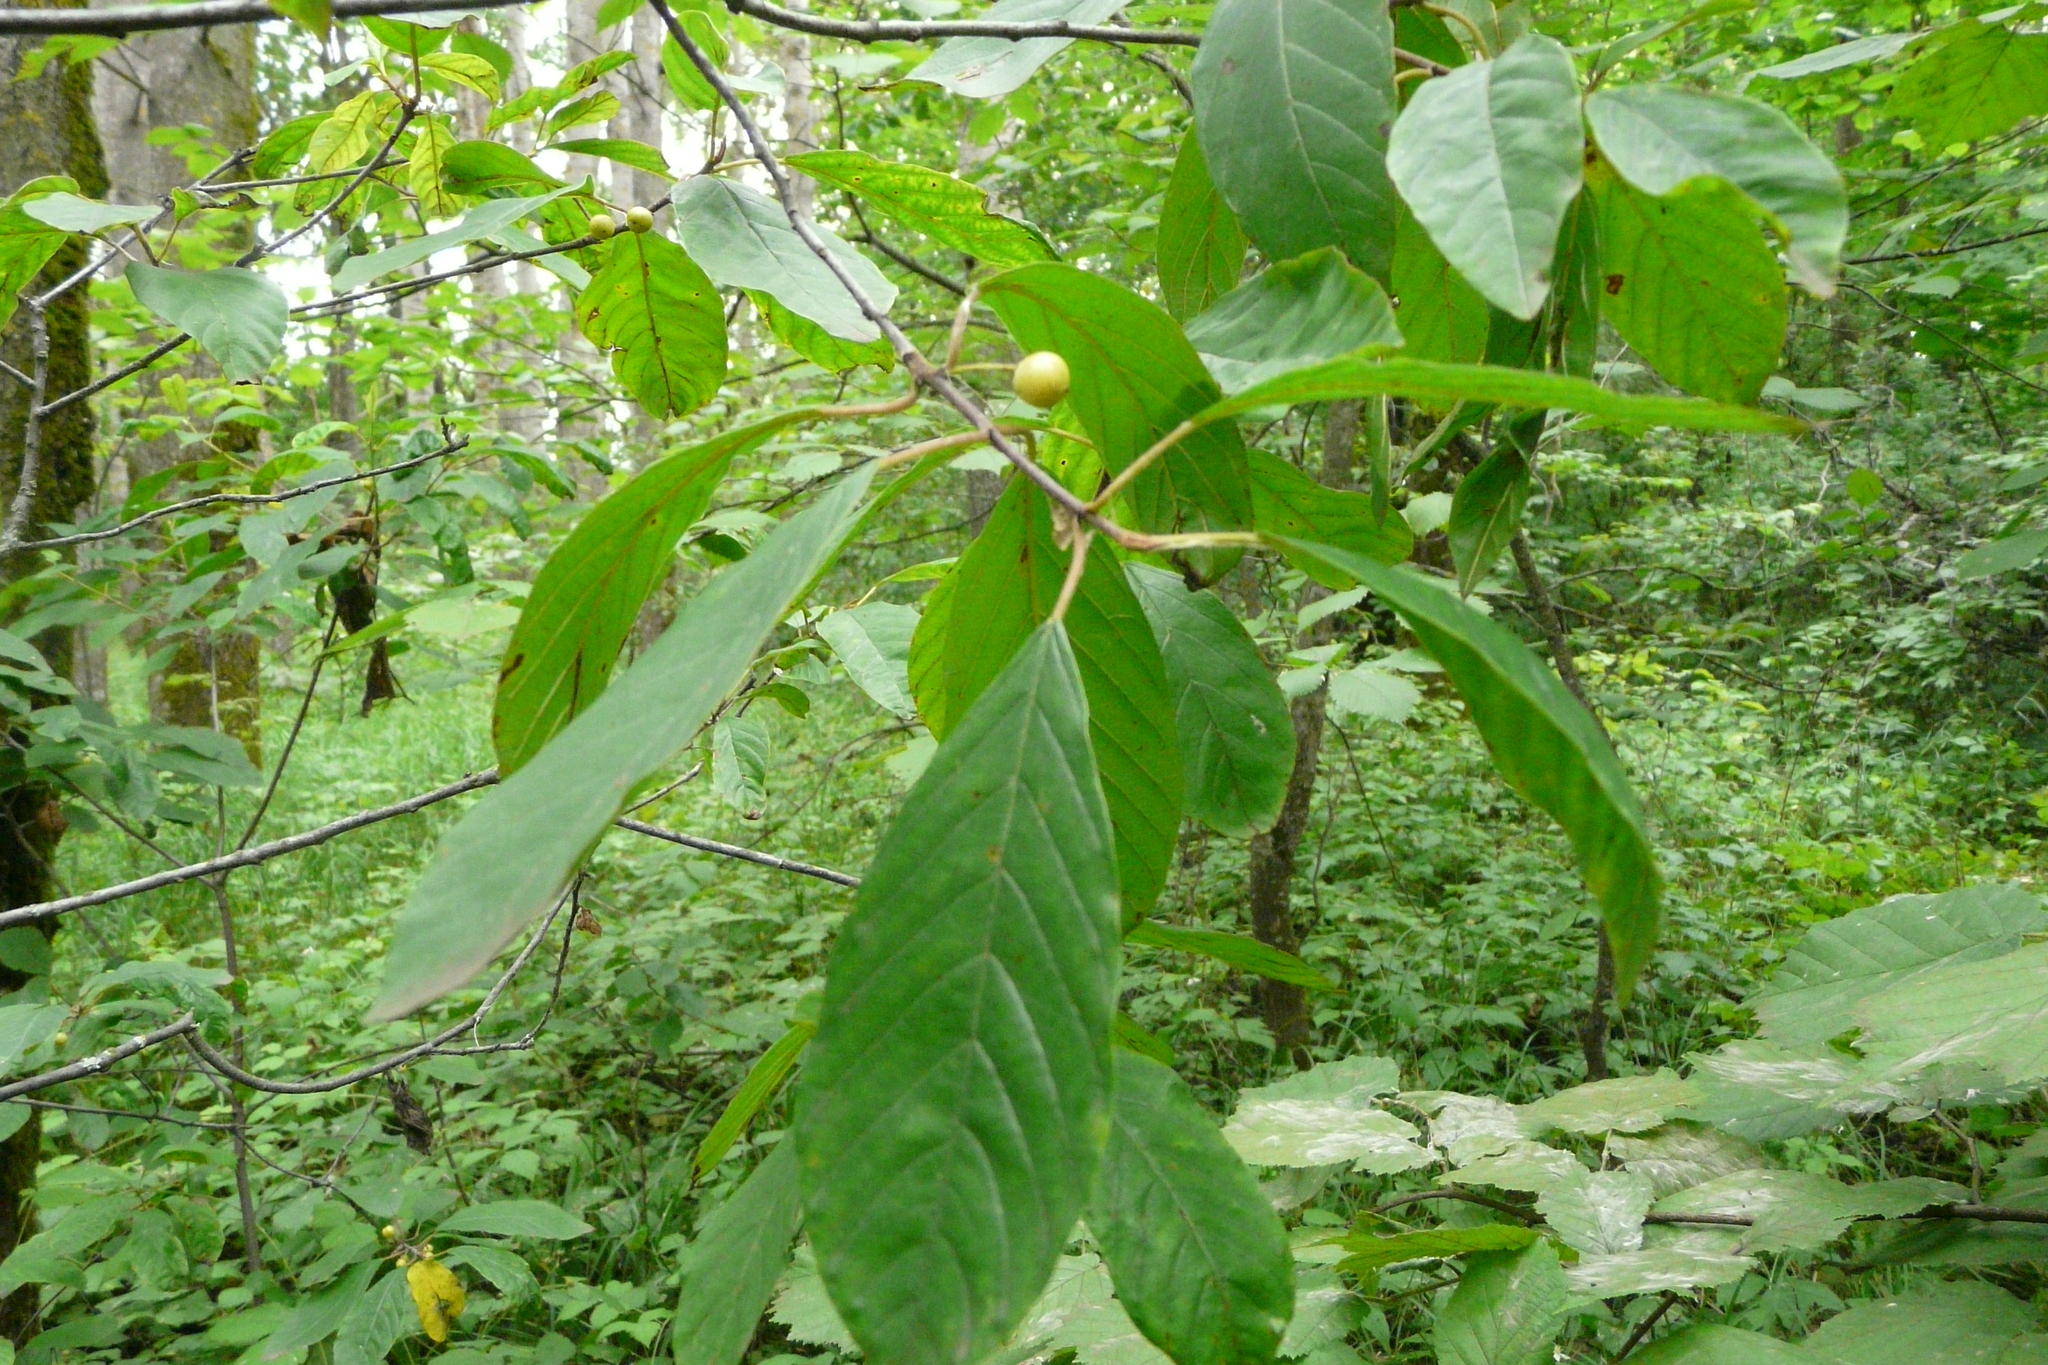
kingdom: Plantae
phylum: Tracheophyta
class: Magnoliopsida
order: Rosales
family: Rhamnaceae
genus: Frangula
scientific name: Frangula alnus
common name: Alder buckthorn
